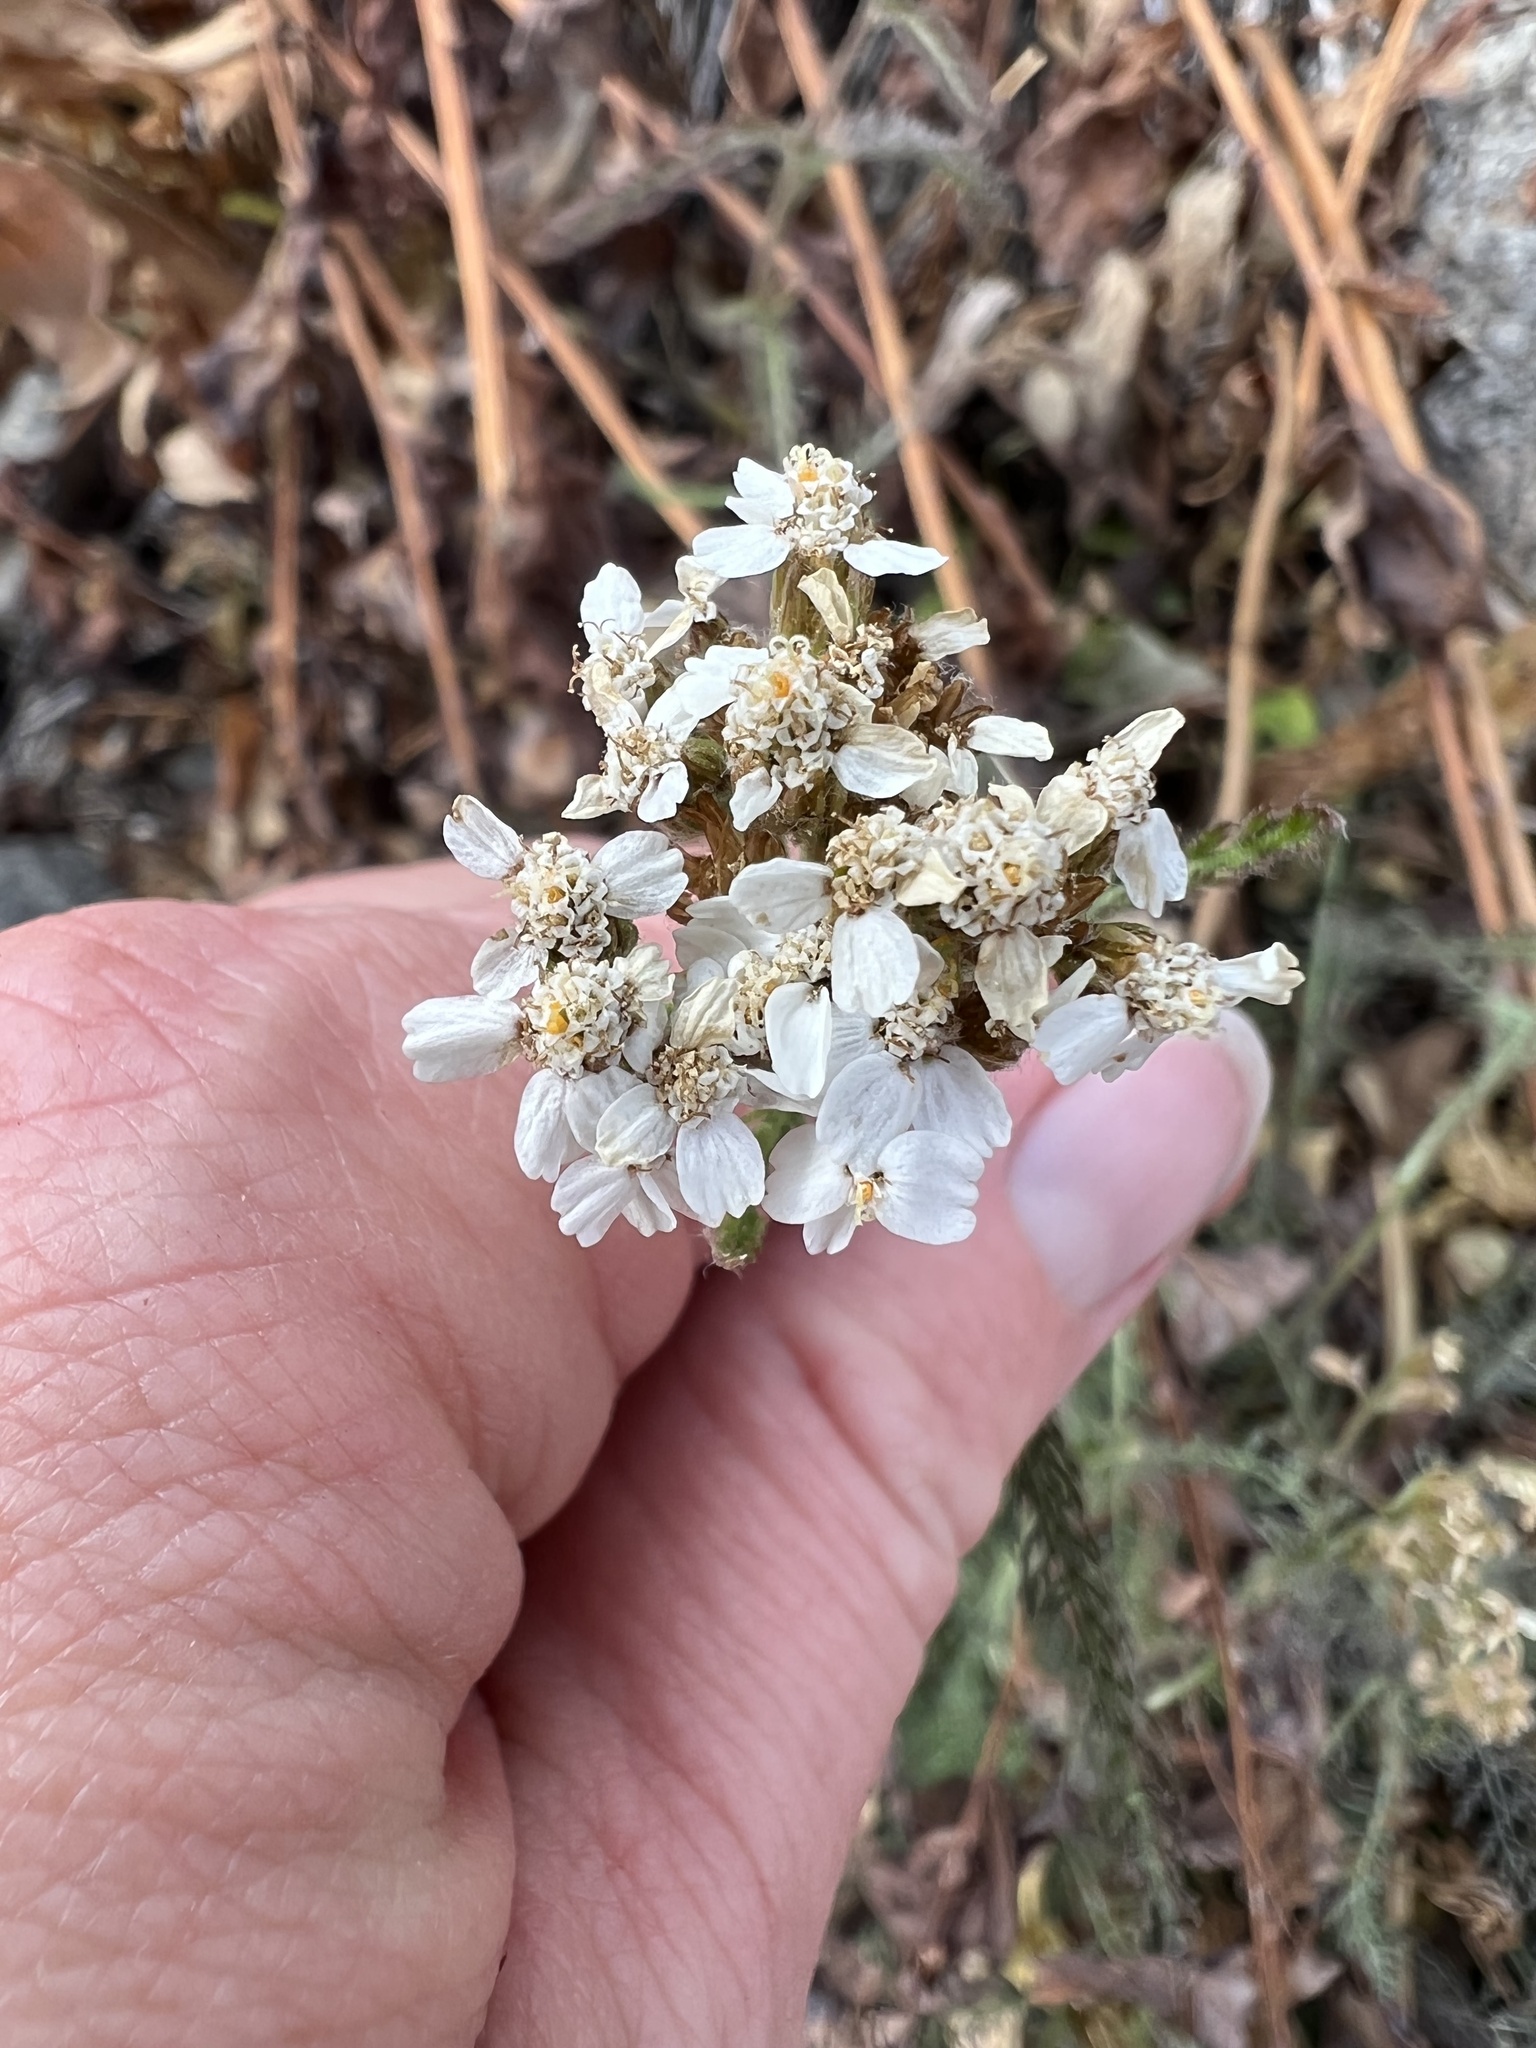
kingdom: Plantae
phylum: Tracheophyta
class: Magnoliopsida
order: Asterales
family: Asteraceae
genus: Achillea
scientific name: Achillea millefolium
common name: Yarrow
